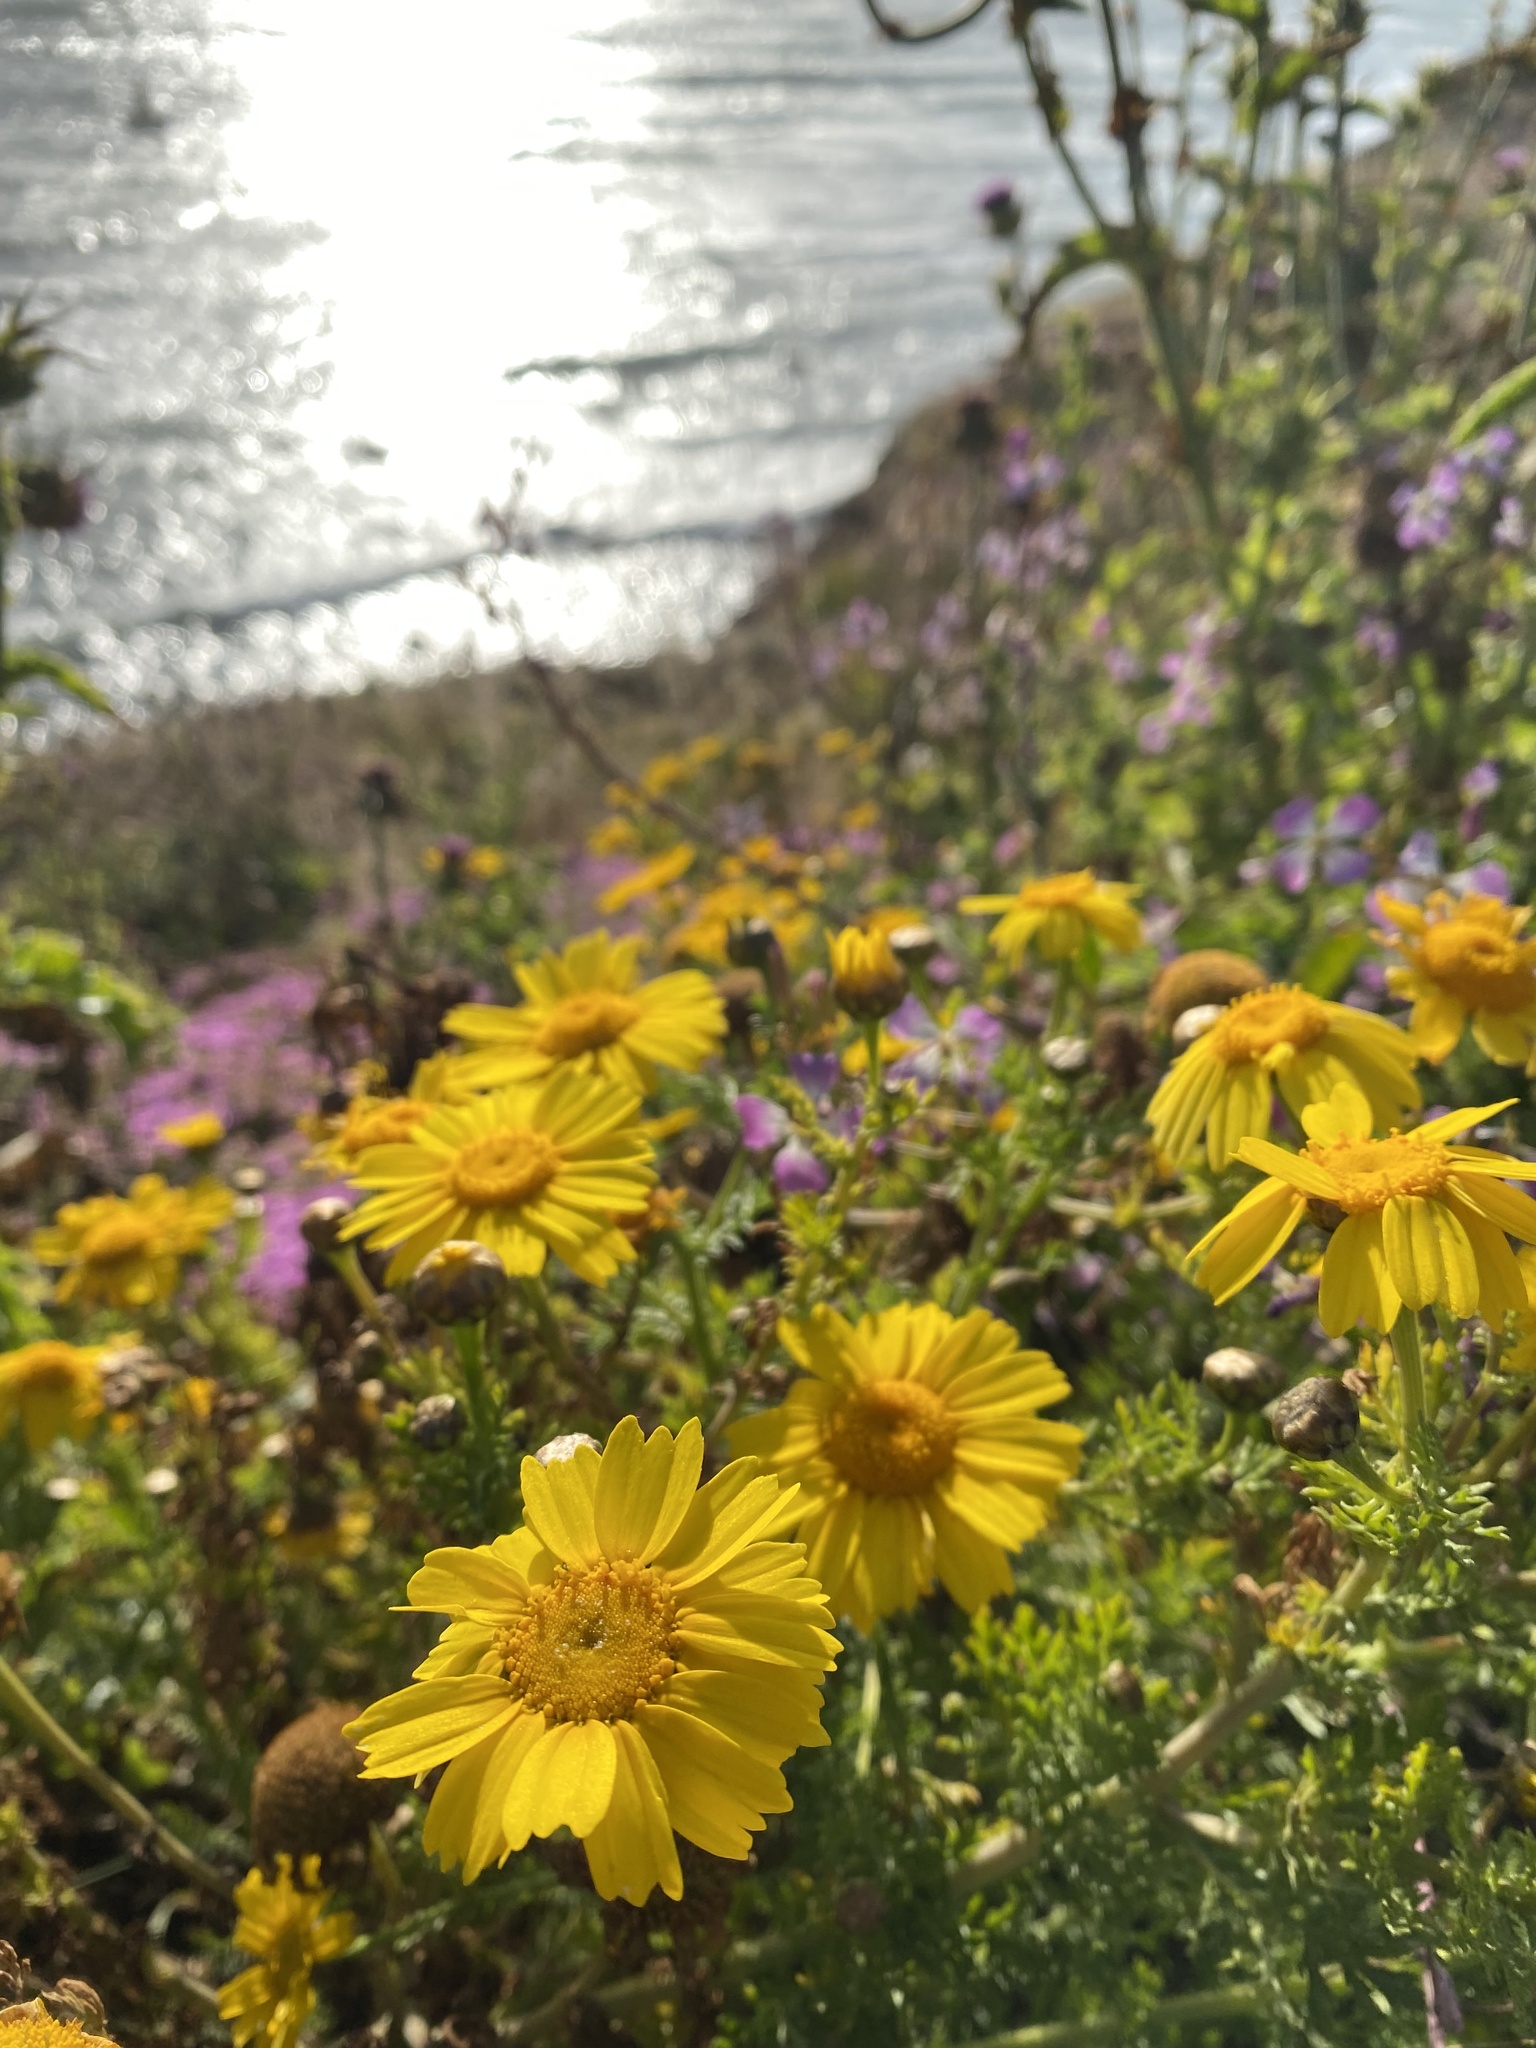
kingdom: Plantae
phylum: Tracheophyta
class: Magnoliopsida
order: Asterales
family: Asteraceae
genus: Glebionis
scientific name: Glebionis coronaria
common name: Crowndaisy
